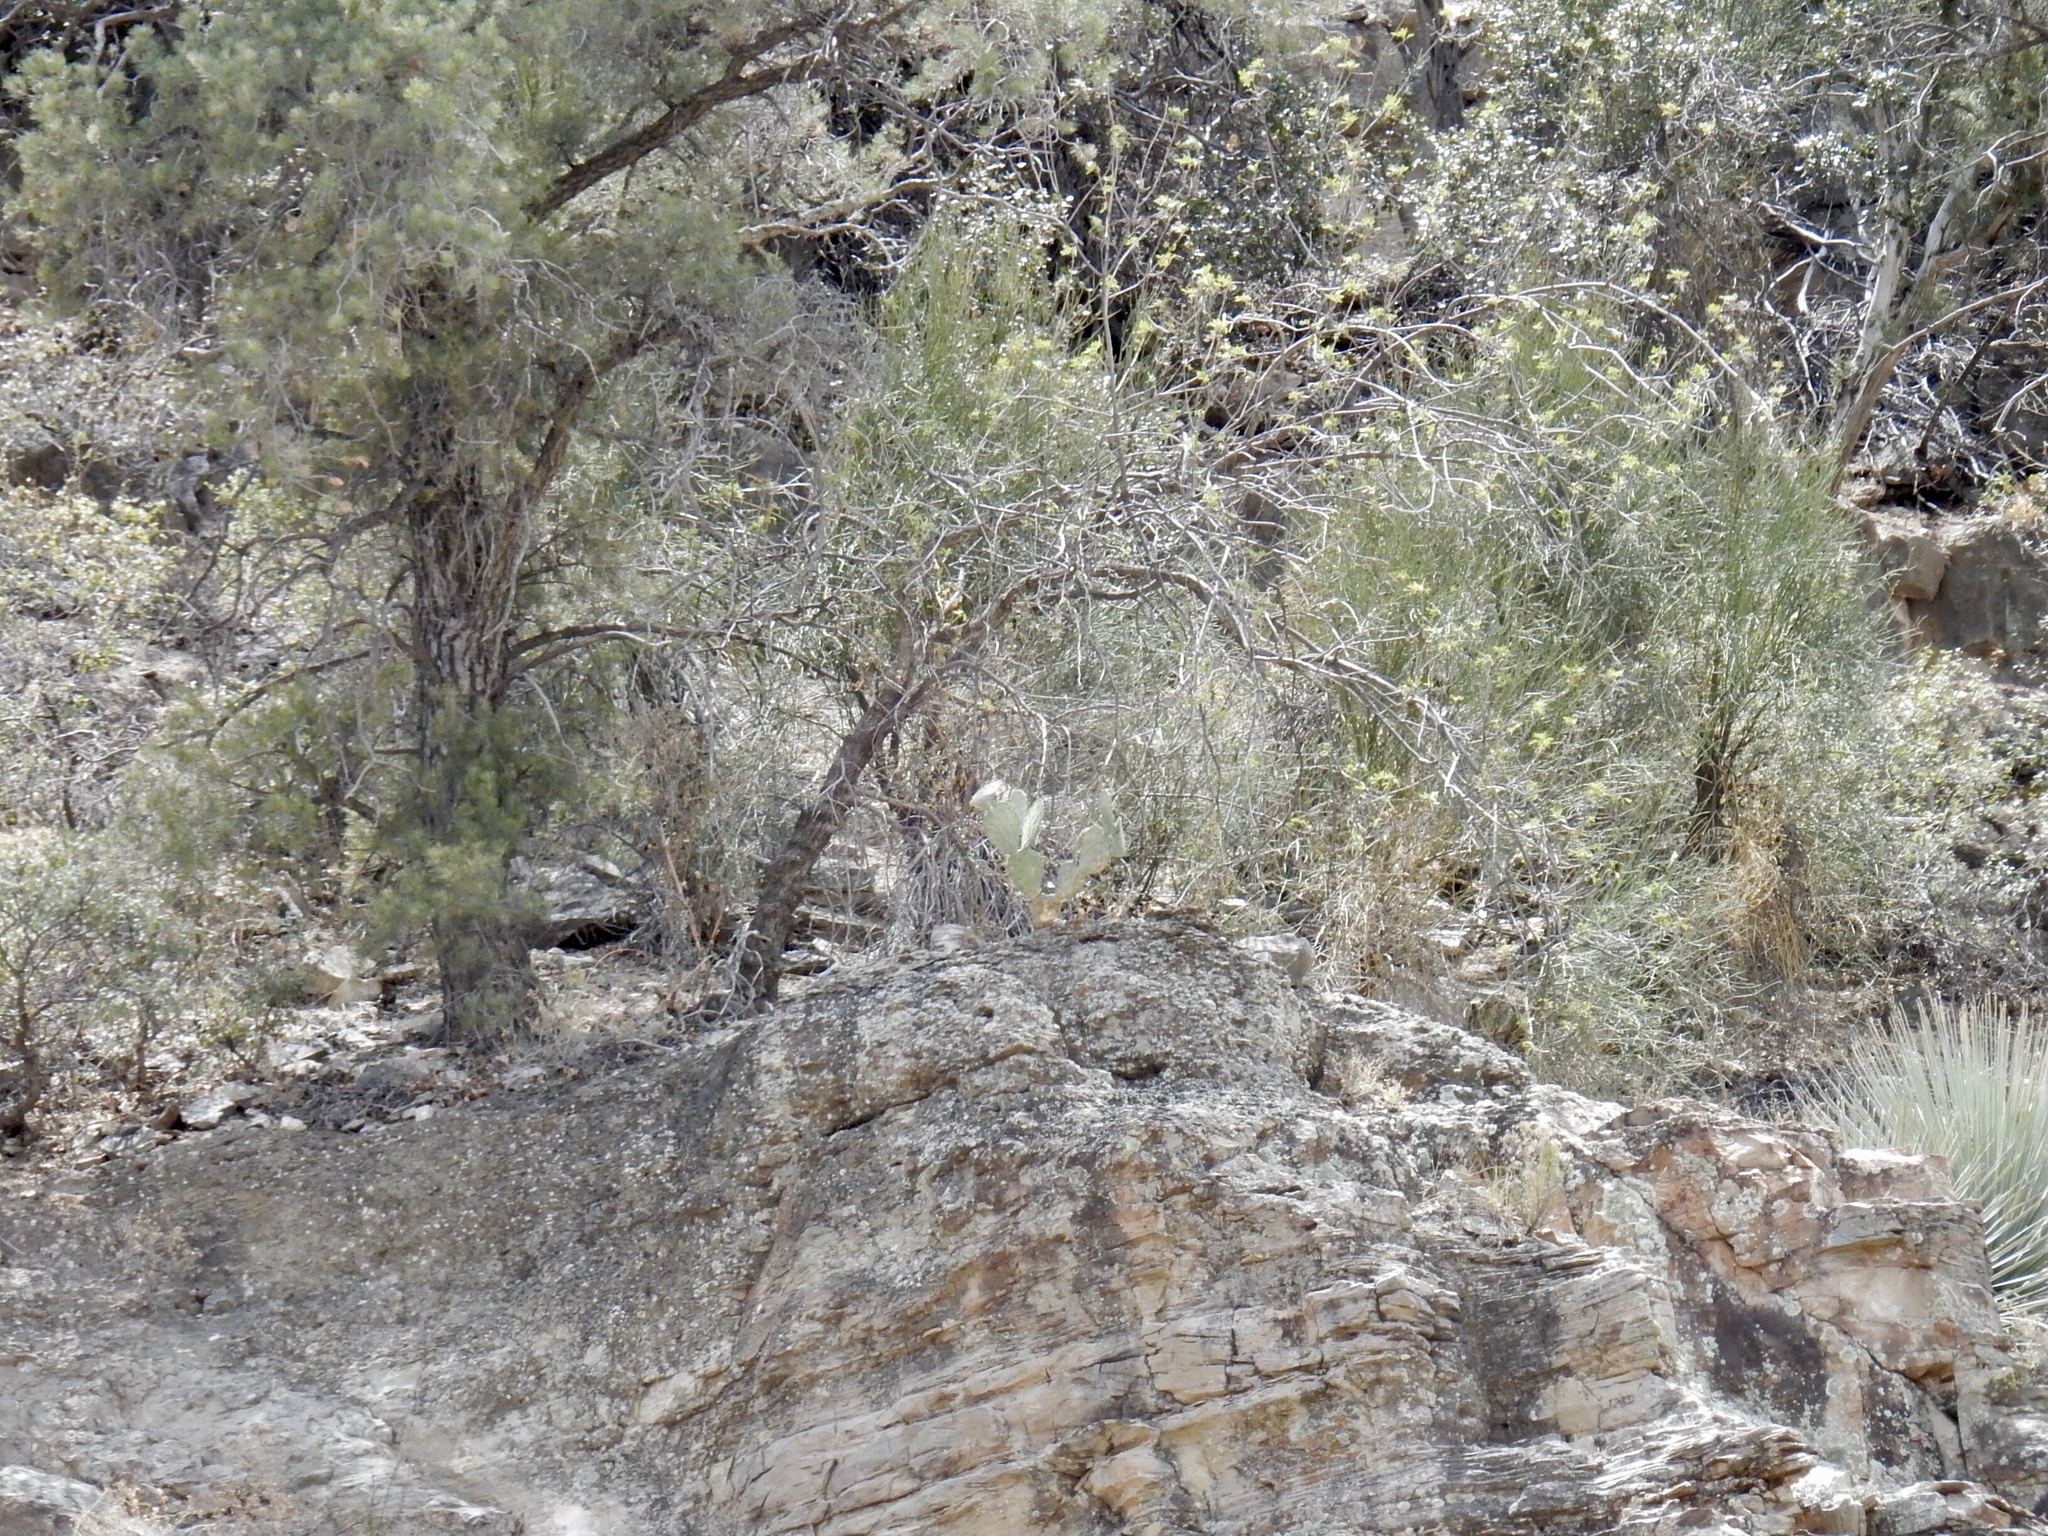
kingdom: Plantae
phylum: Tracheophyta
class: Magnoliopsida
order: Celastrales
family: Celastraceae
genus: Canotia
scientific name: Canotia holacantha
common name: Crucifixion thorns
